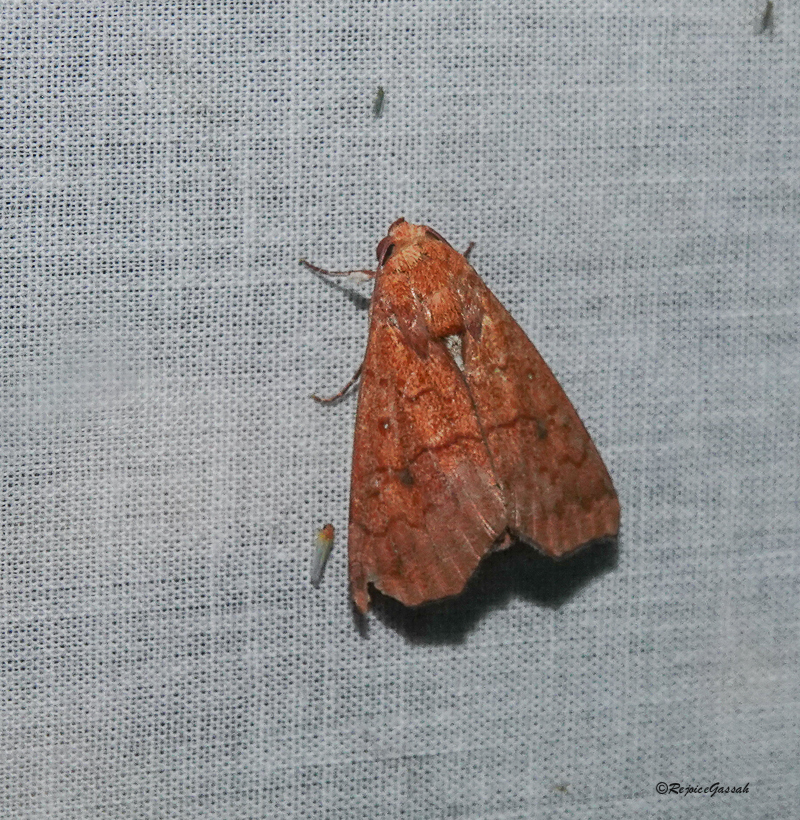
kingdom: Animalia
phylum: Arthropoda
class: Insecta
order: Lepidoptera
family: Erebidae
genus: Rusicada
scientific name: Rusicada combinans
